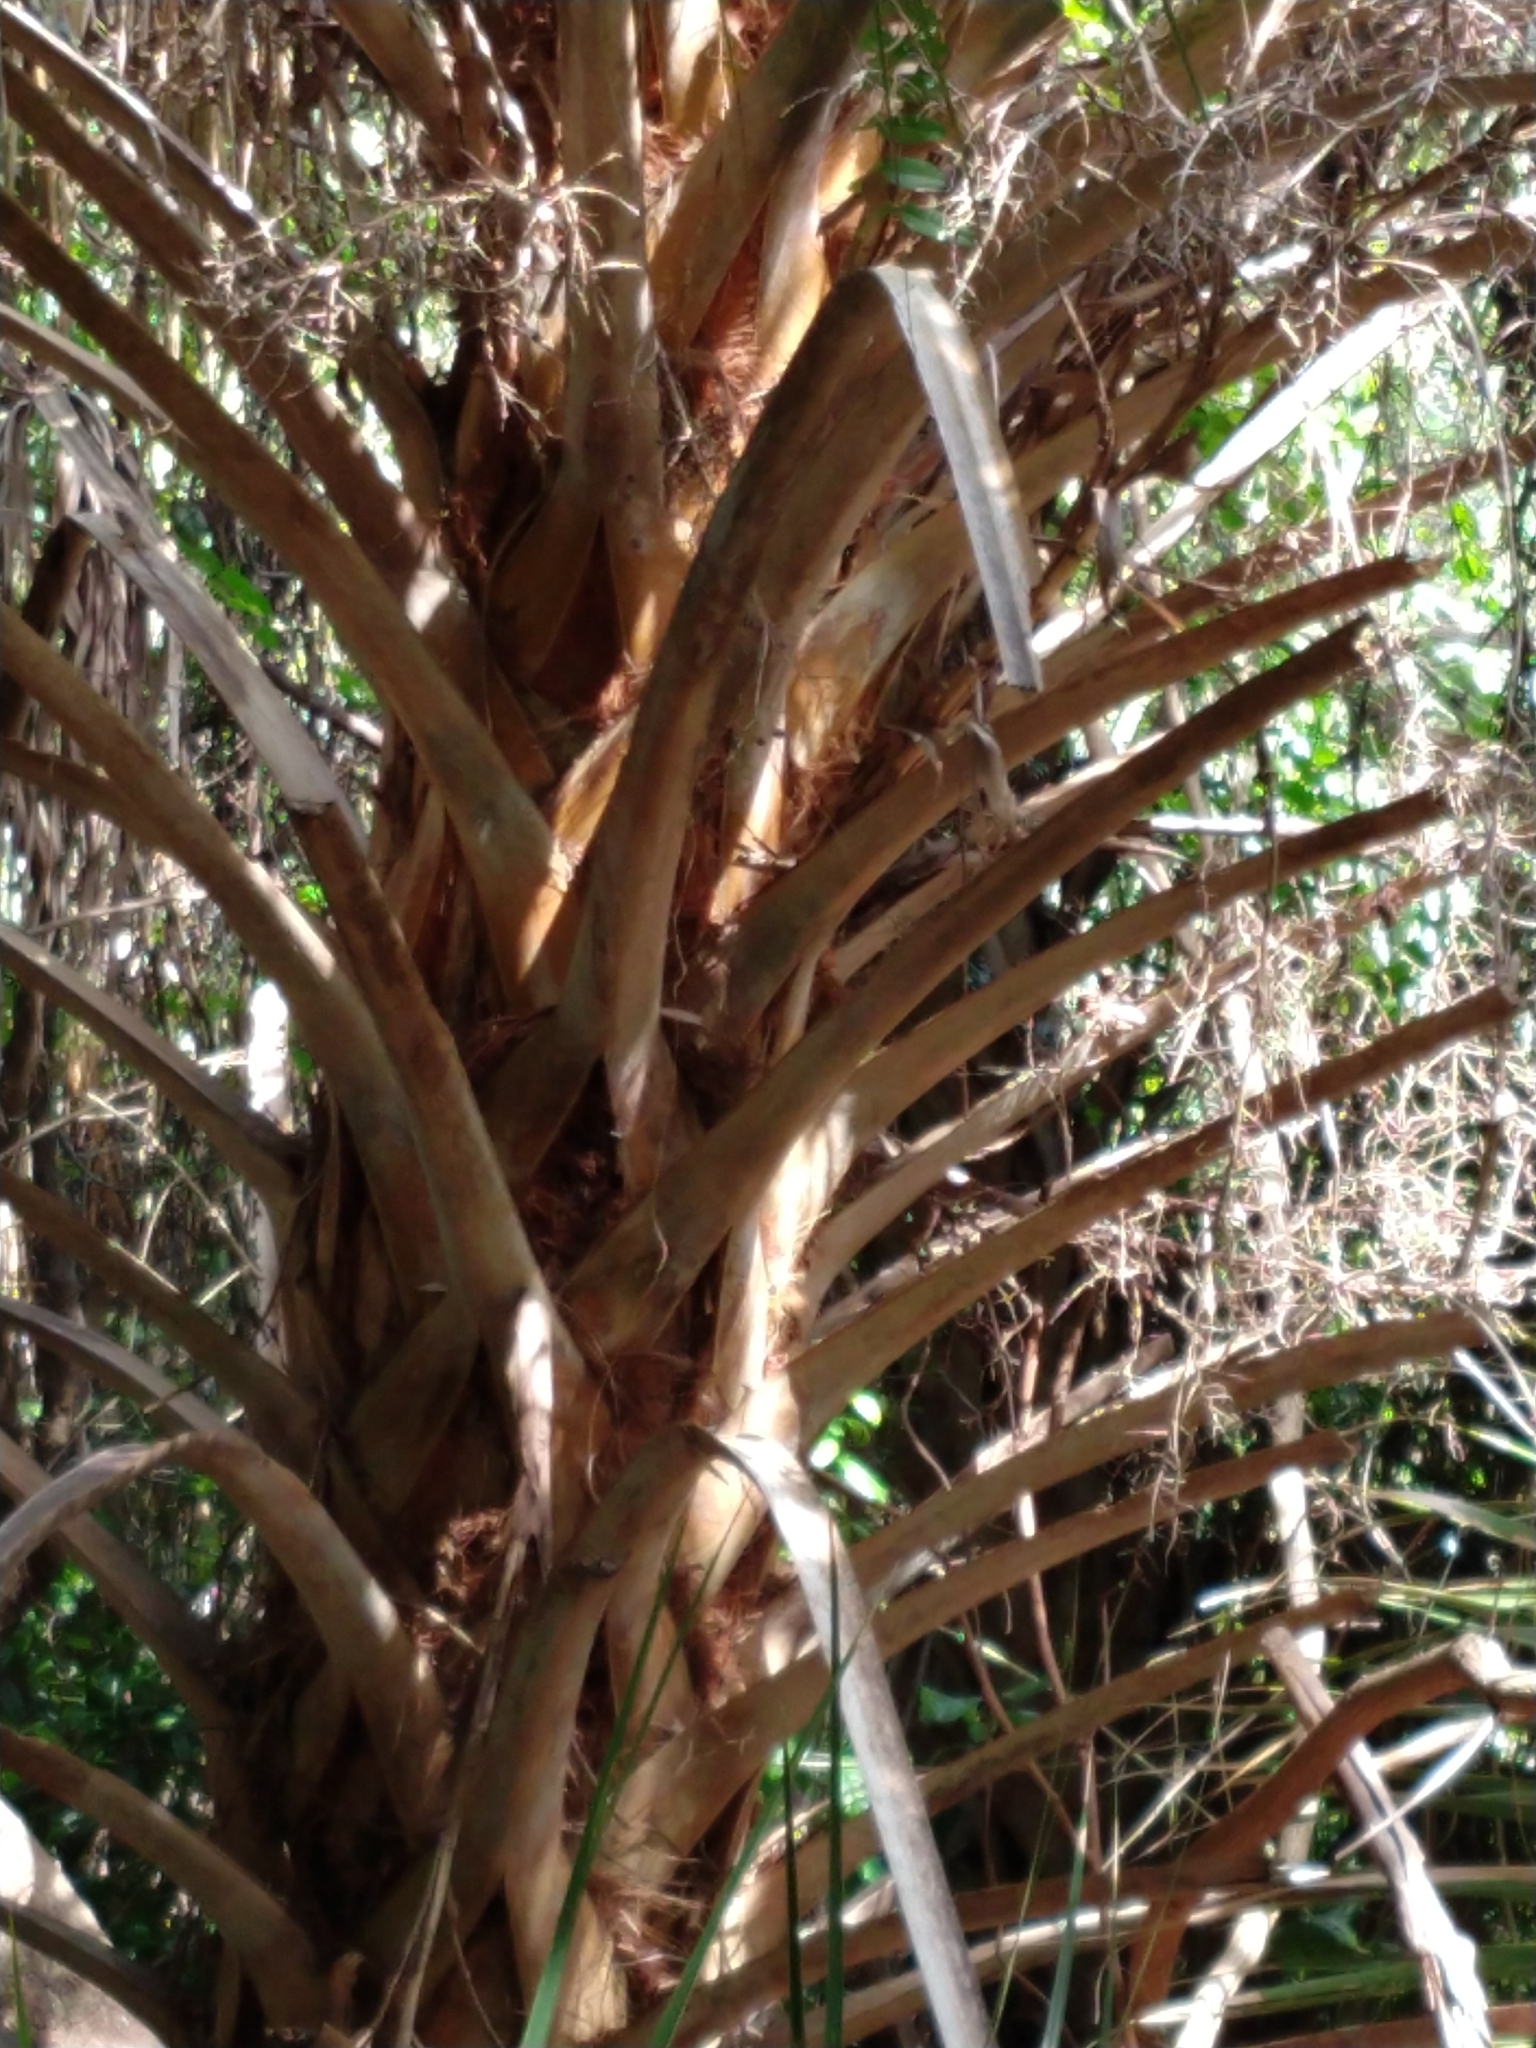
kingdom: Plantae
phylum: Tracheophyta
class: Liliopsida
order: Arecales
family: Arecaceae
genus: Sabal
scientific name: Sabal palmetto
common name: Blue palmetto
